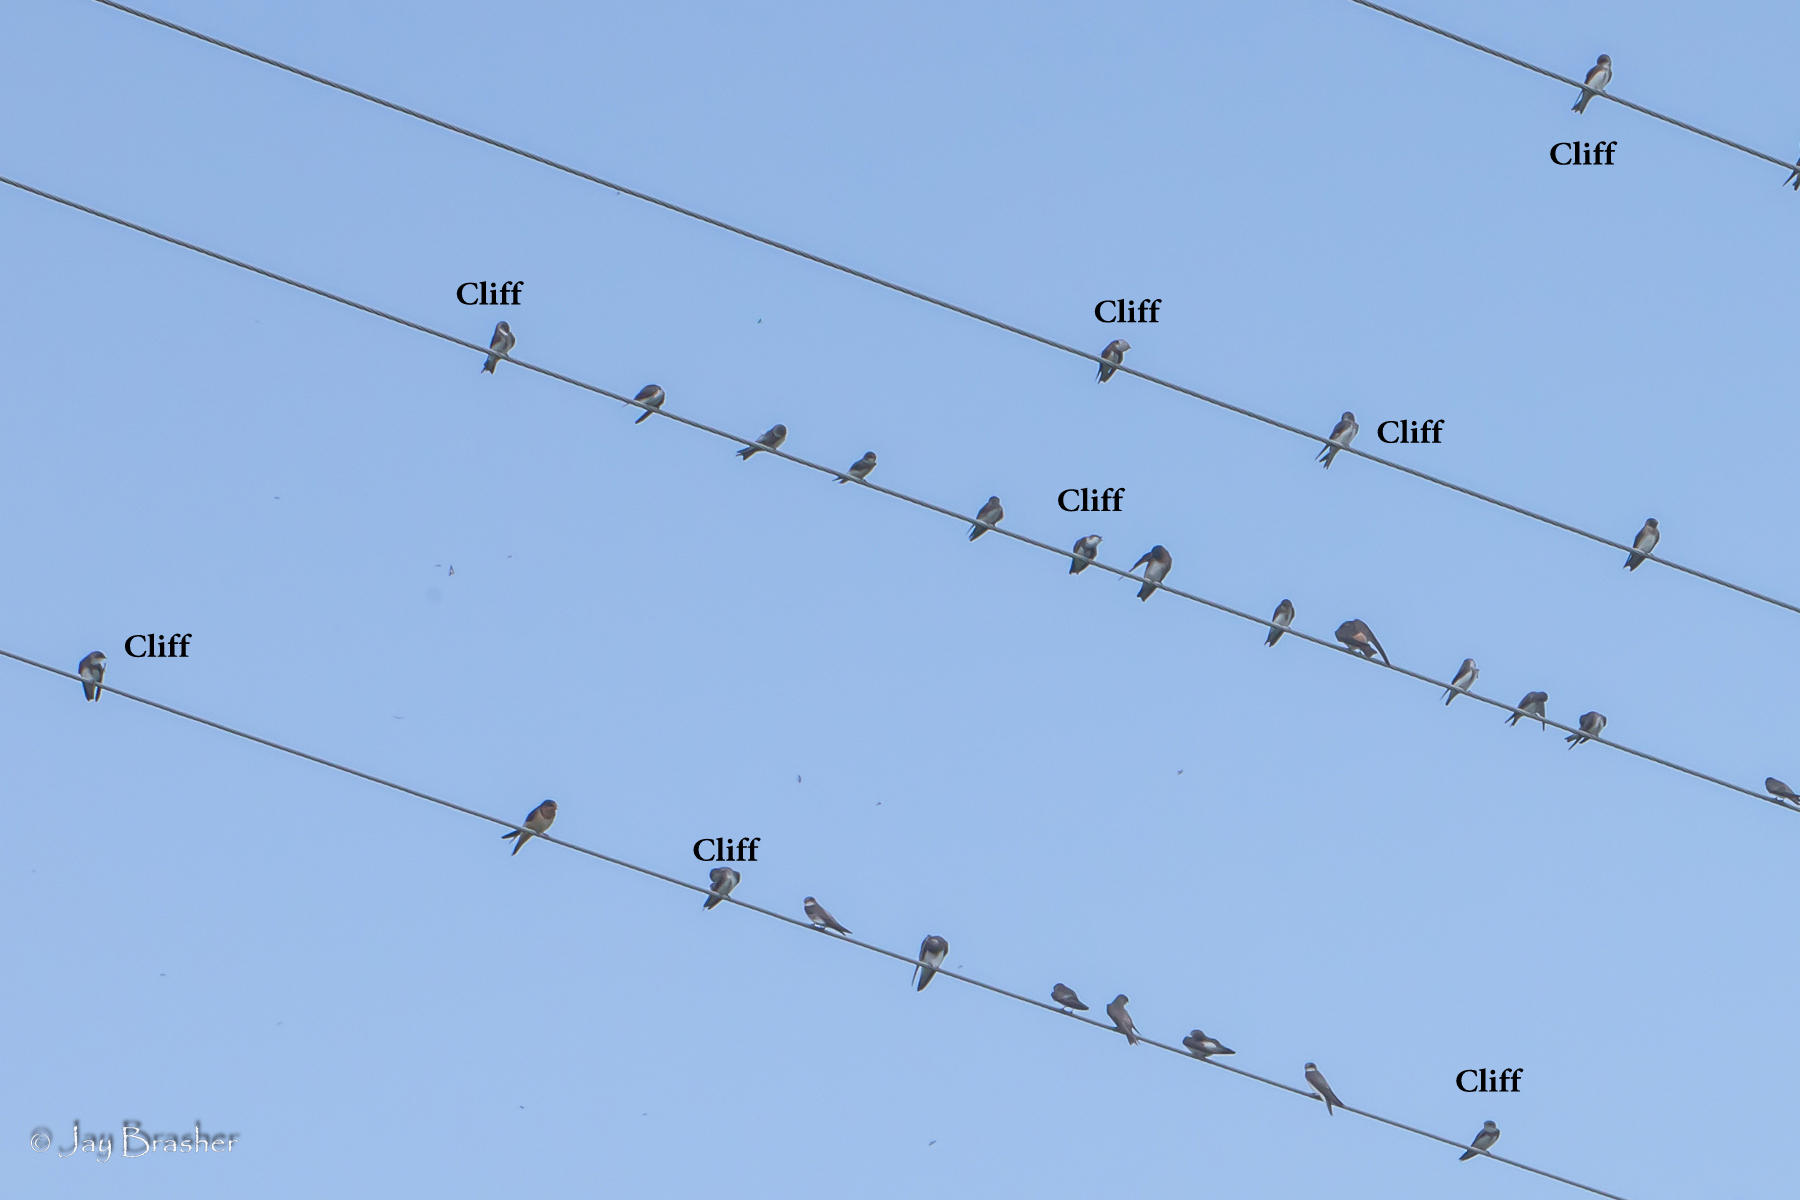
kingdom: Animalia
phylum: Chordata
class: Aves
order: Passeriformes
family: Hirundinidae
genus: Petrochelidon
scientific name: Petrochelidon pyrrhonota
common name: American cliff swallow
